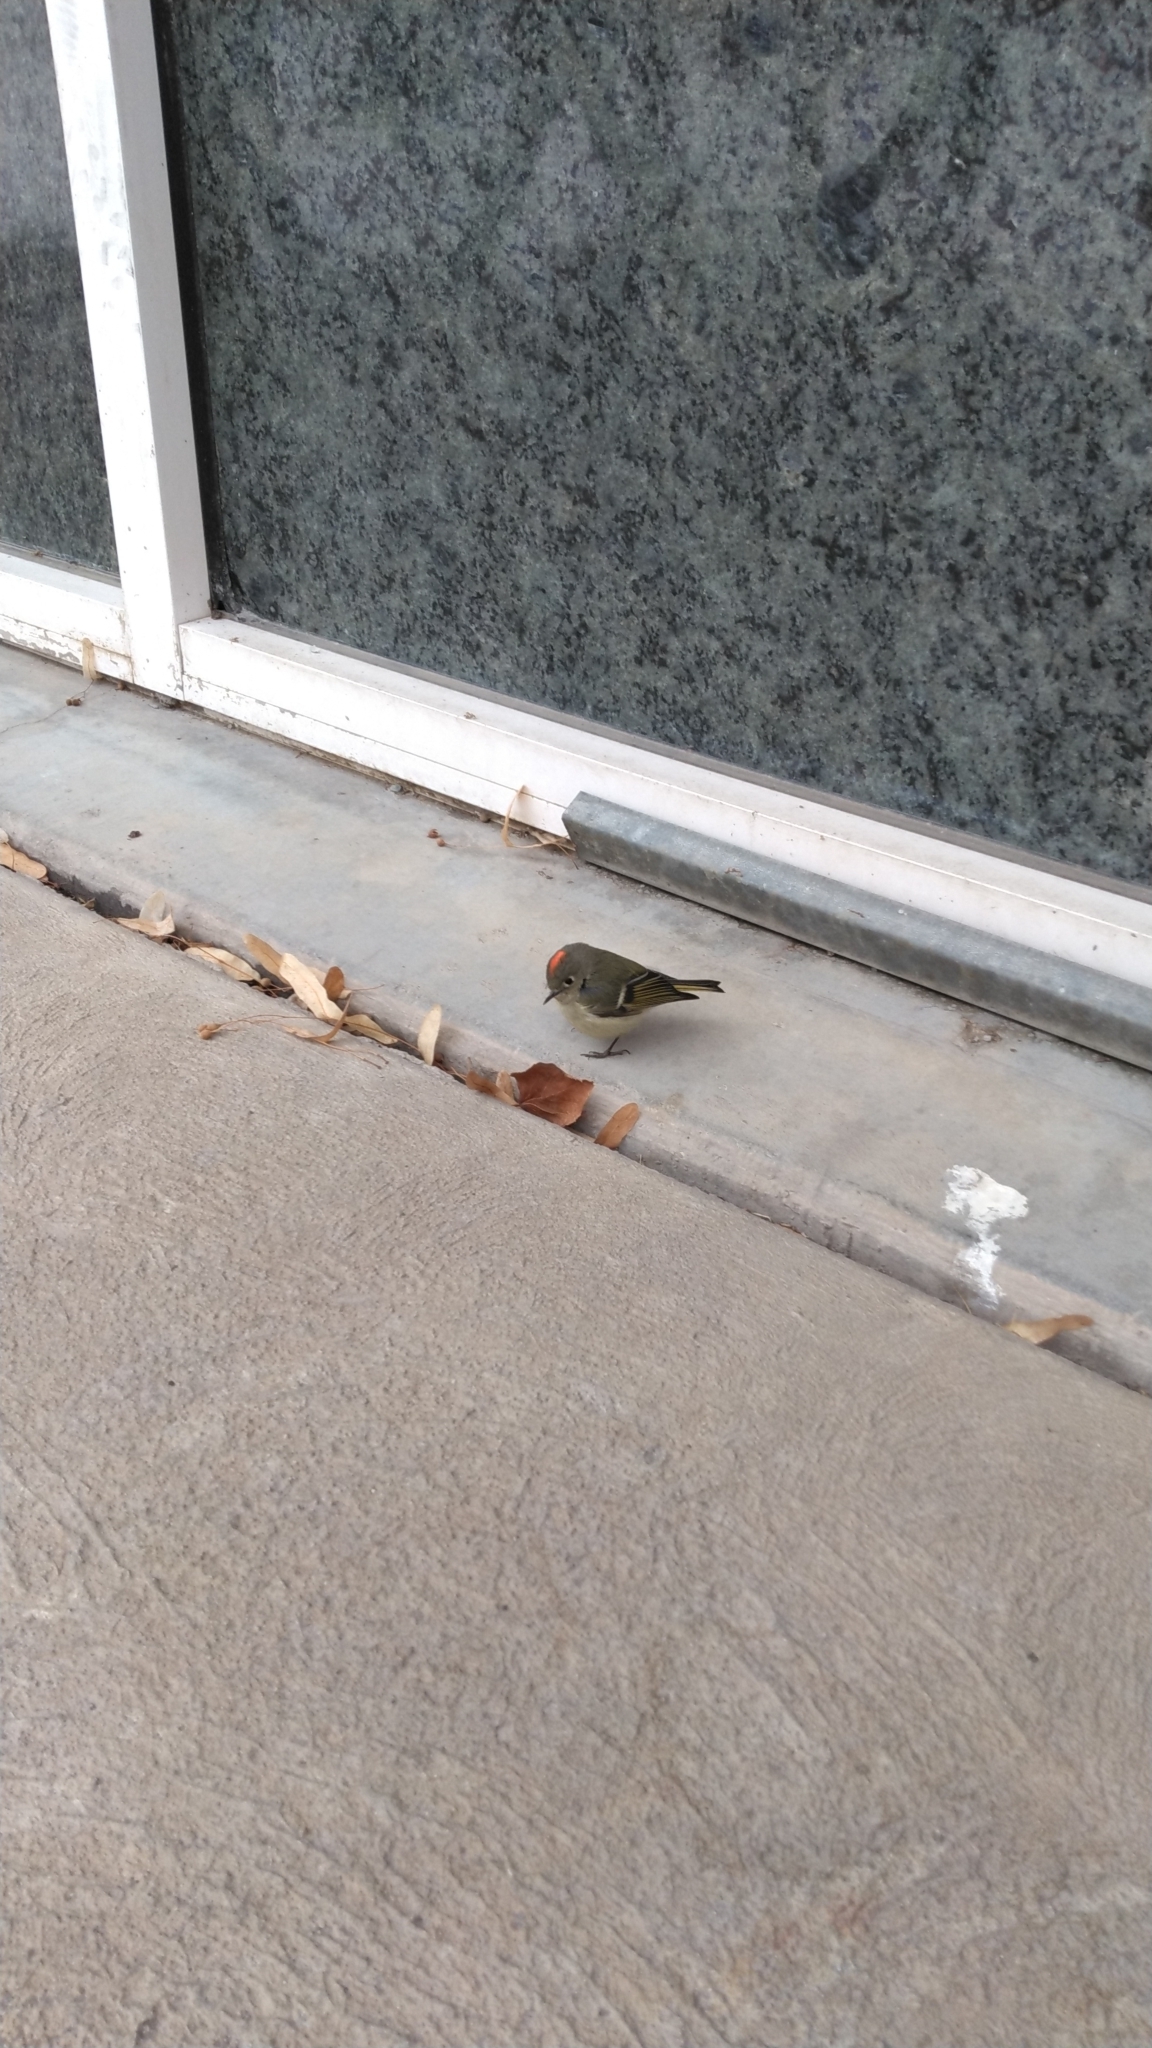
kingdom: Animalia
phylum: Chordata
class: Aves
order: Passeriformes
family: Regulidae
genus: Regulus
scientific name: Regulus calendula
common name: Ruby-crowned kinglet
